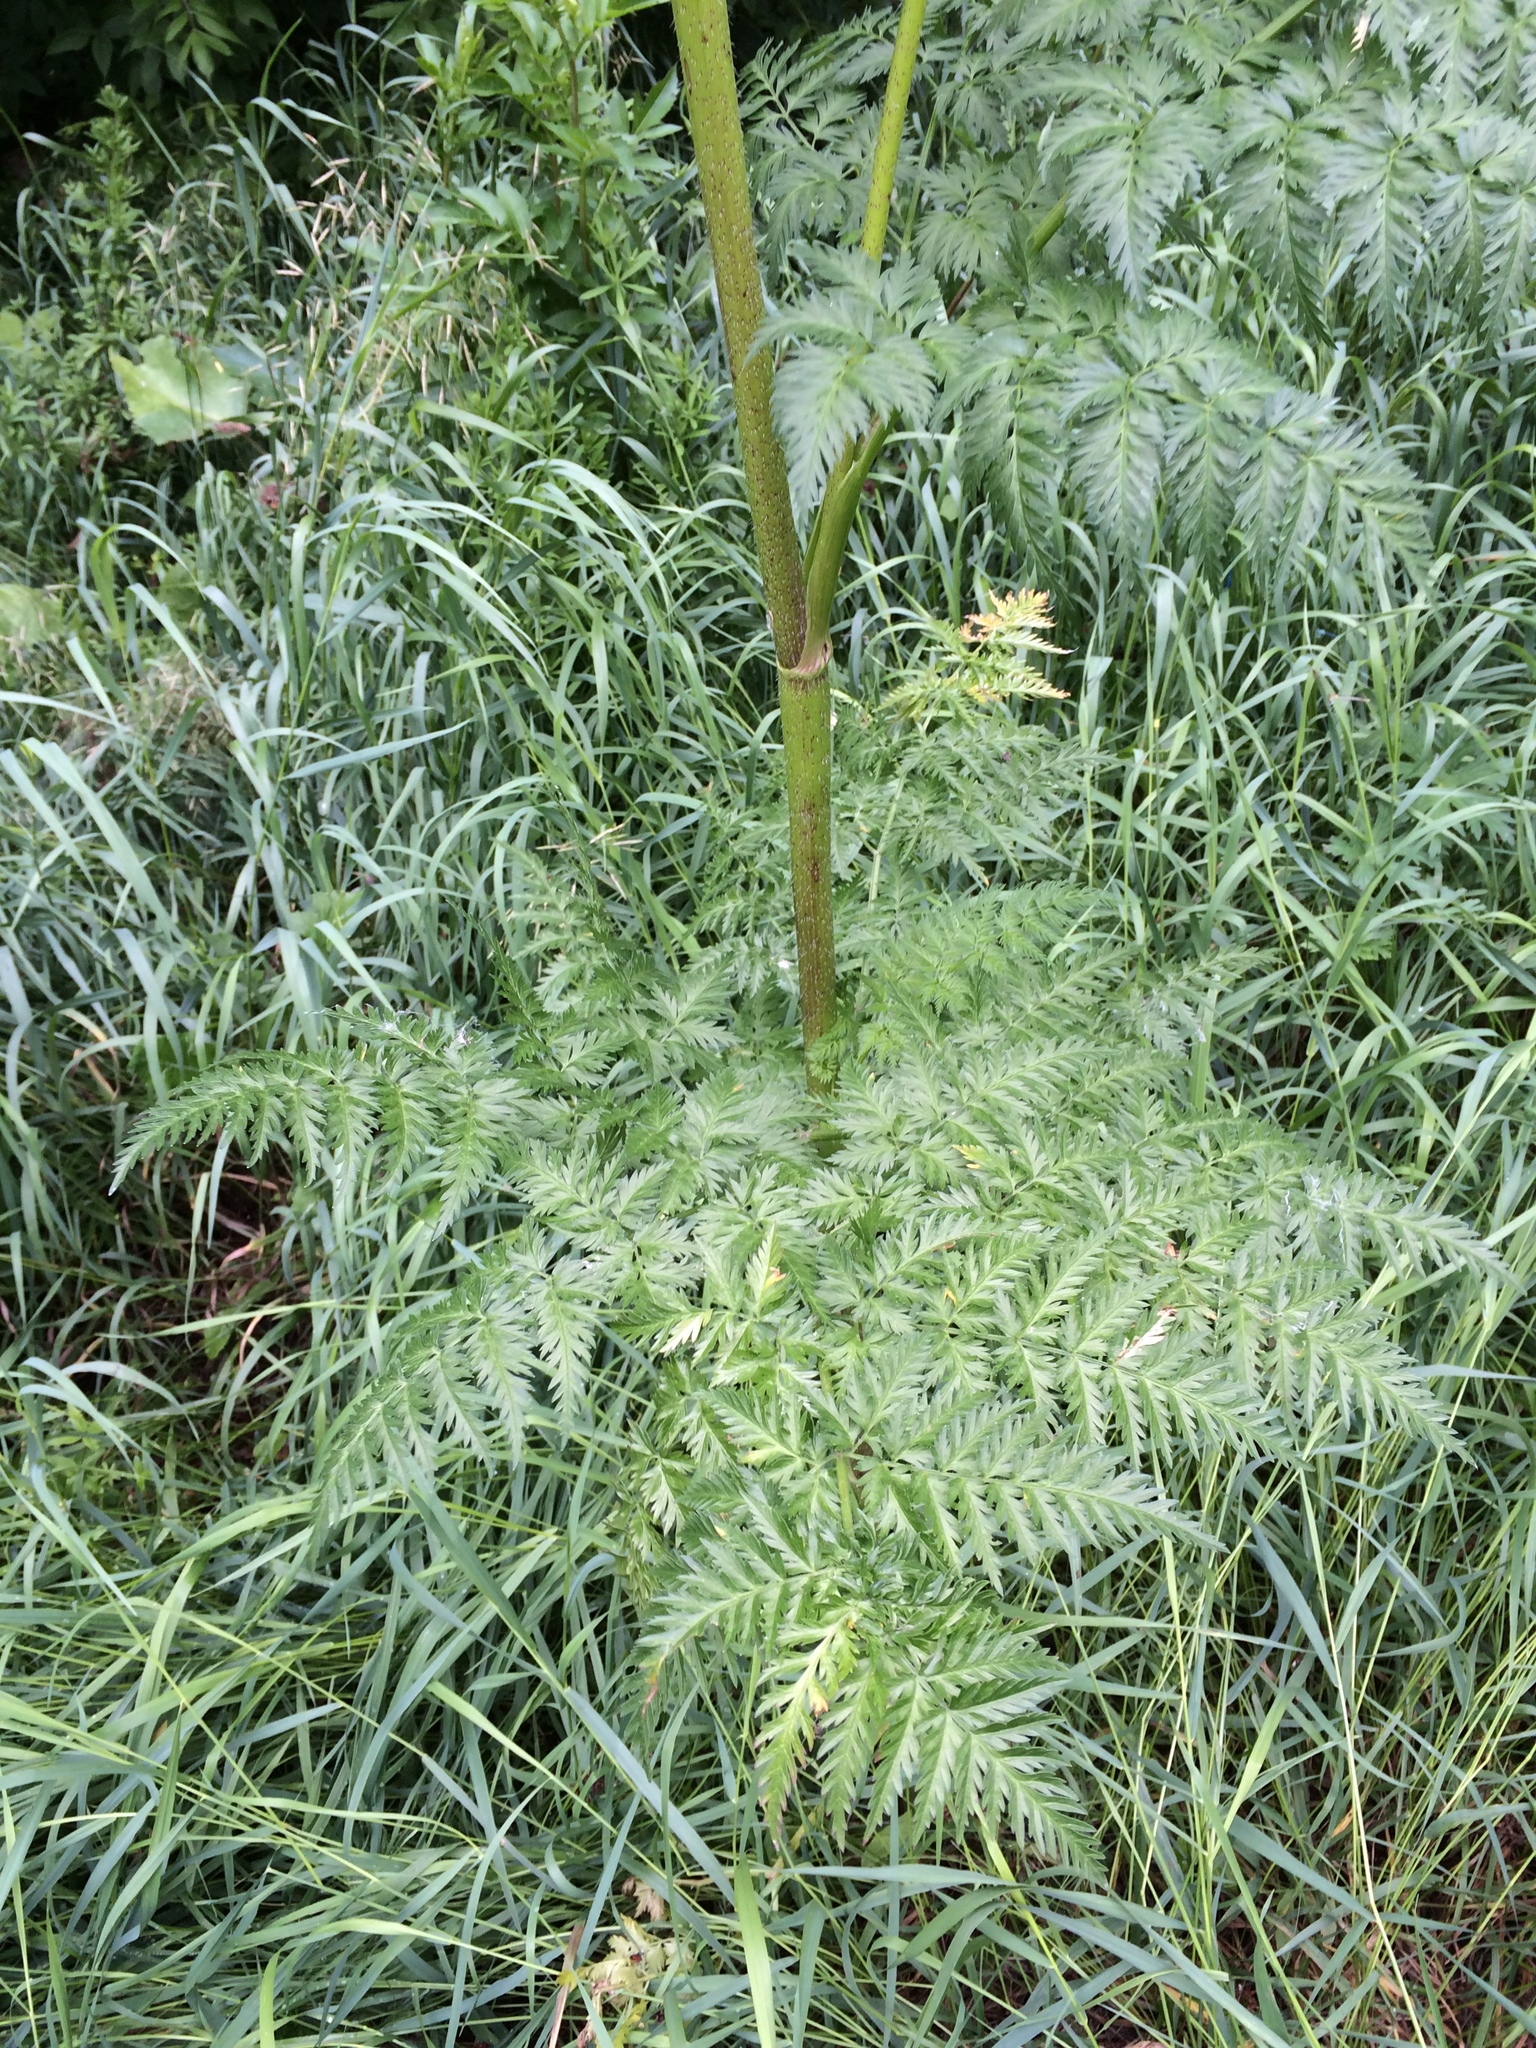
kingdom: Plantae
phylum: Tracheophyta
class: Magnoliopsida
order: Apiales
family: Apiaceae
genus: Conium
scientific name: Conium maculatum
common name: Hemlock
